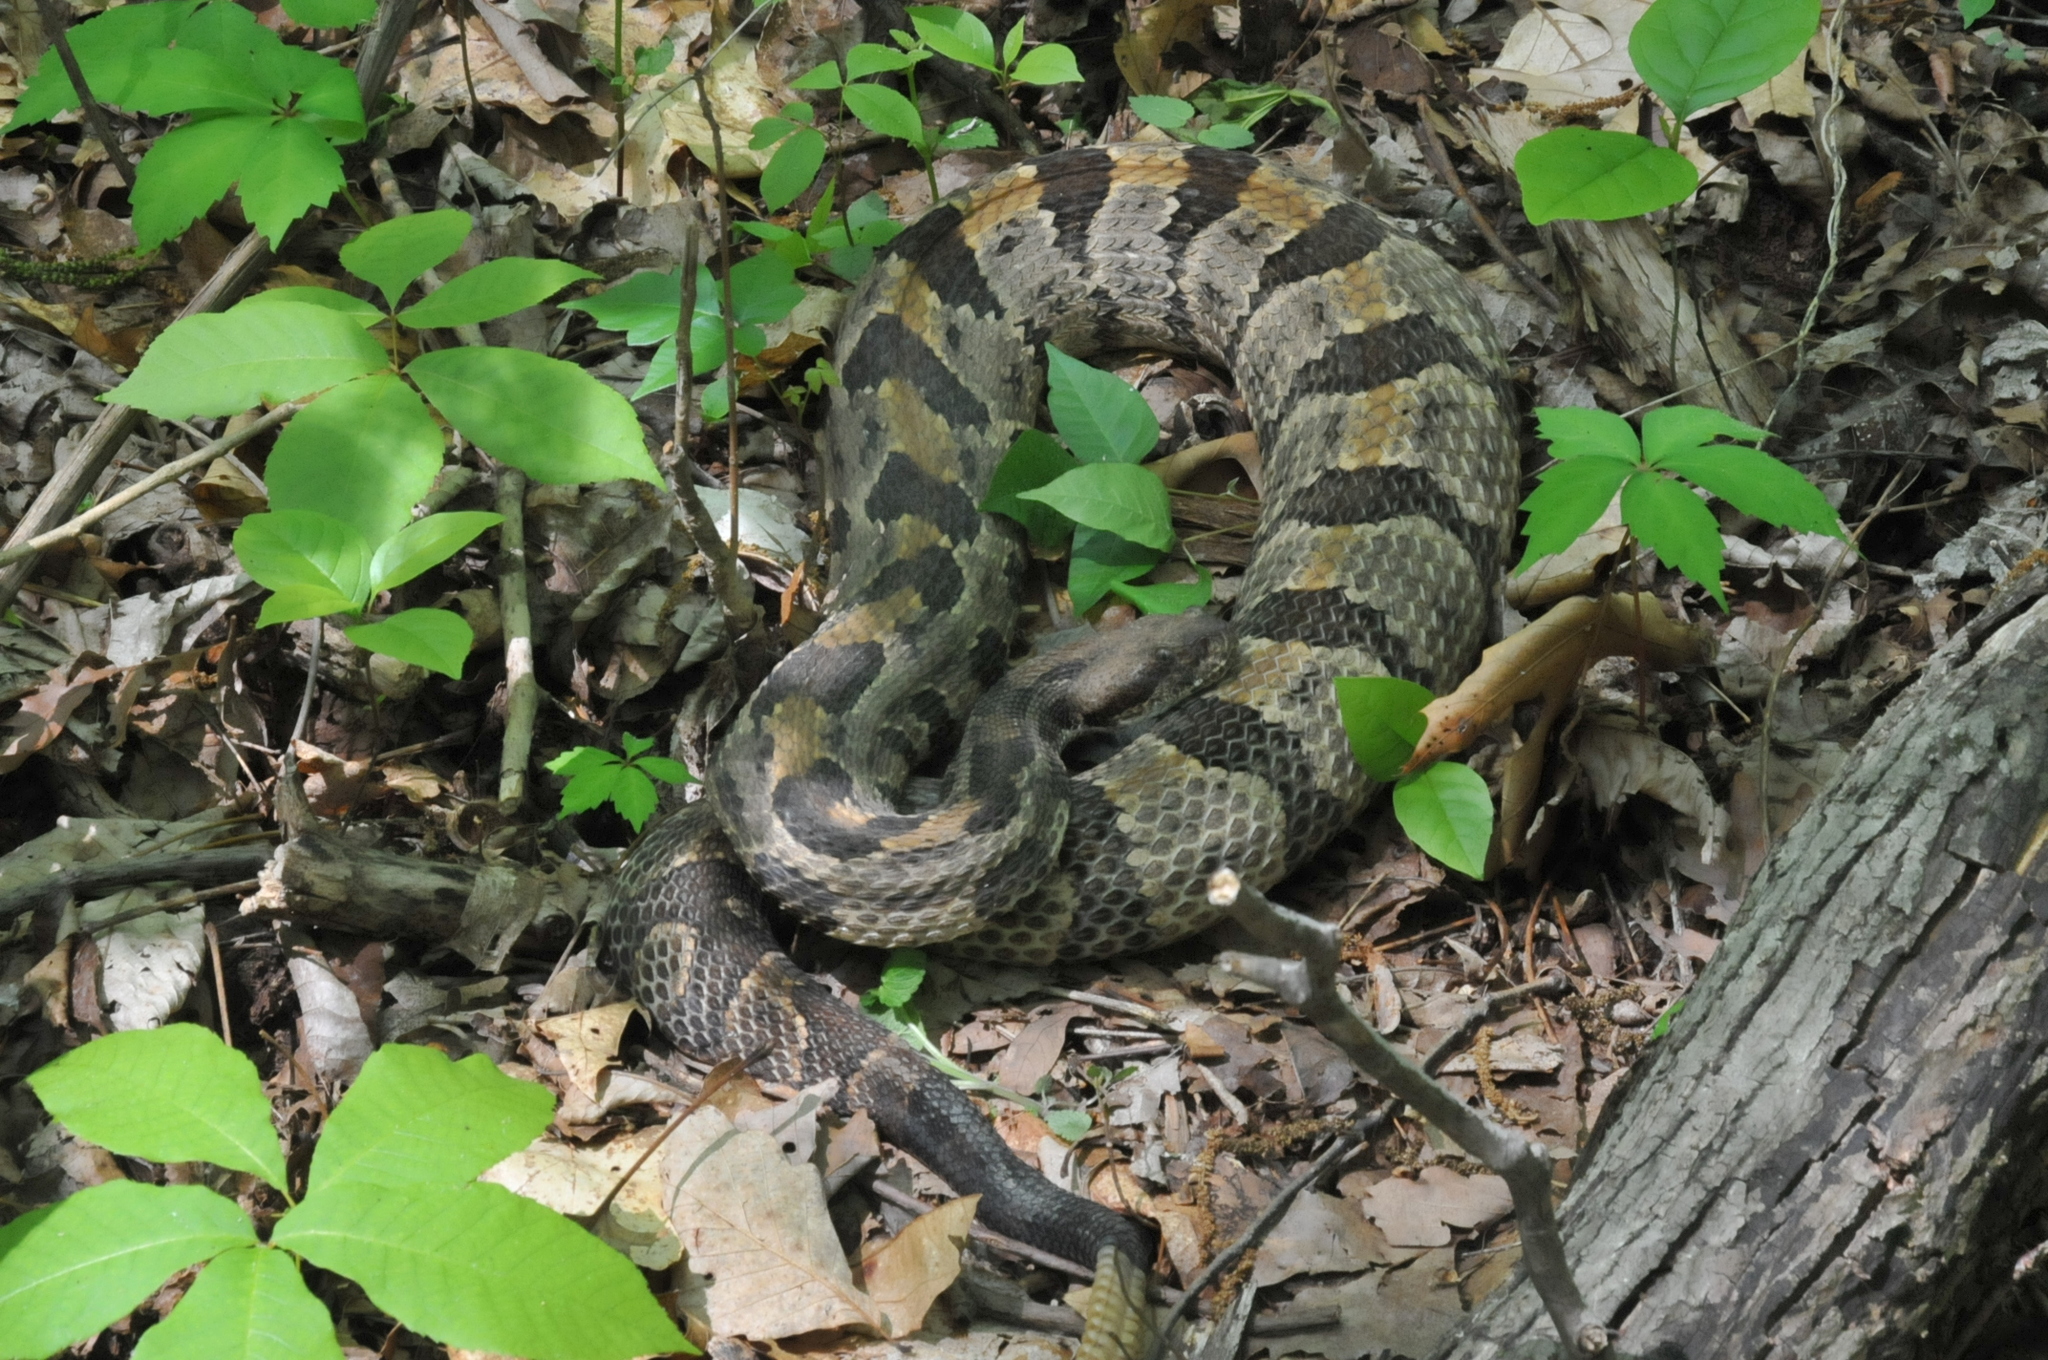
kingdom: Animalia
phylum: Chordata
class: Squamata
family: Viperidae
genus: Crotalus
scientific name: Crotalus horridus
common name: Timber rattlesnake
